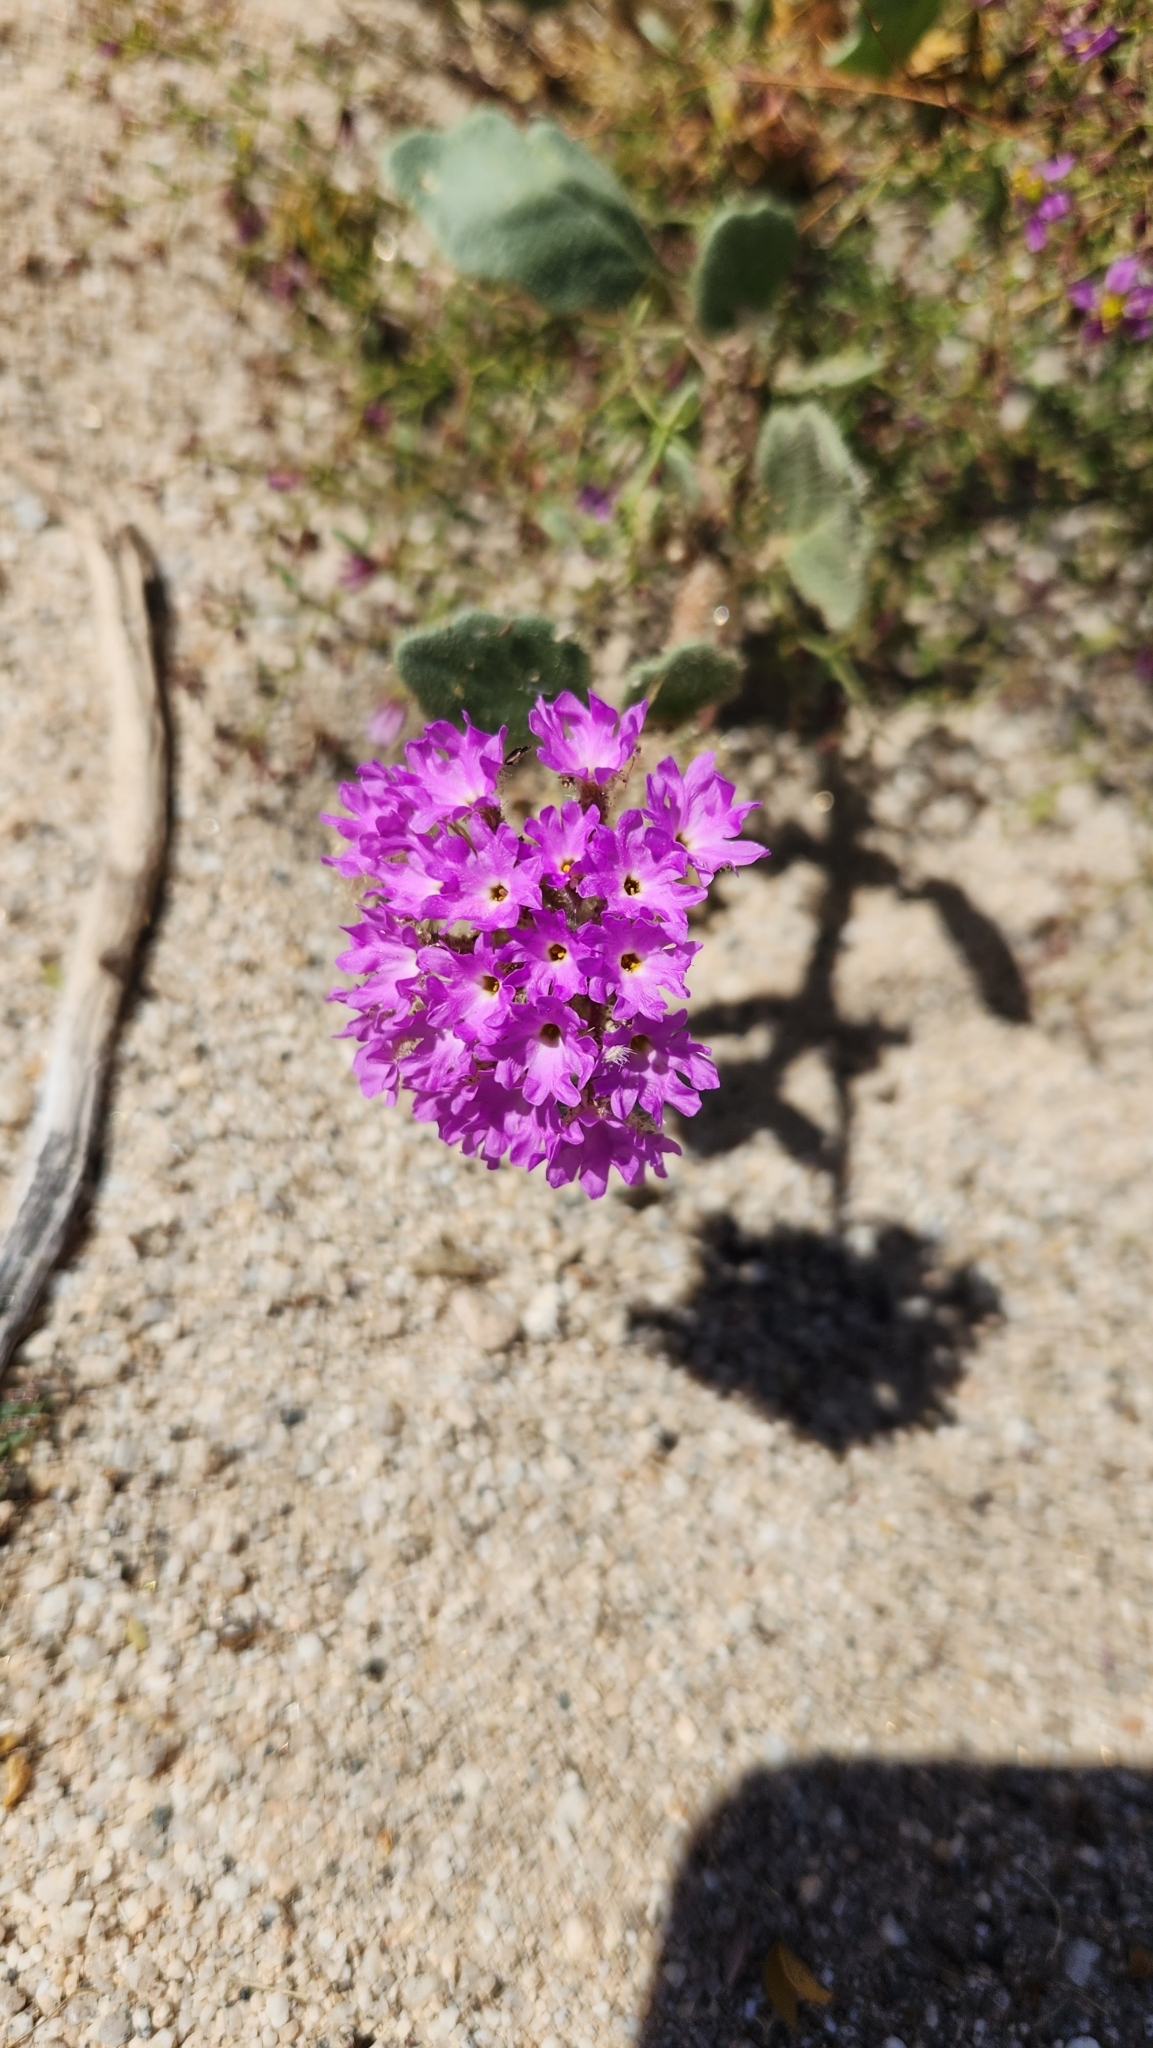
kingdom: Plantae
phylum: Tracheophyta
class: Magnoliopsida
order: Caryophyllales
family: Nyctaginaceae
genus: Abronia
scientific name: Abronia villosa
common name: Desert sand-verbena
